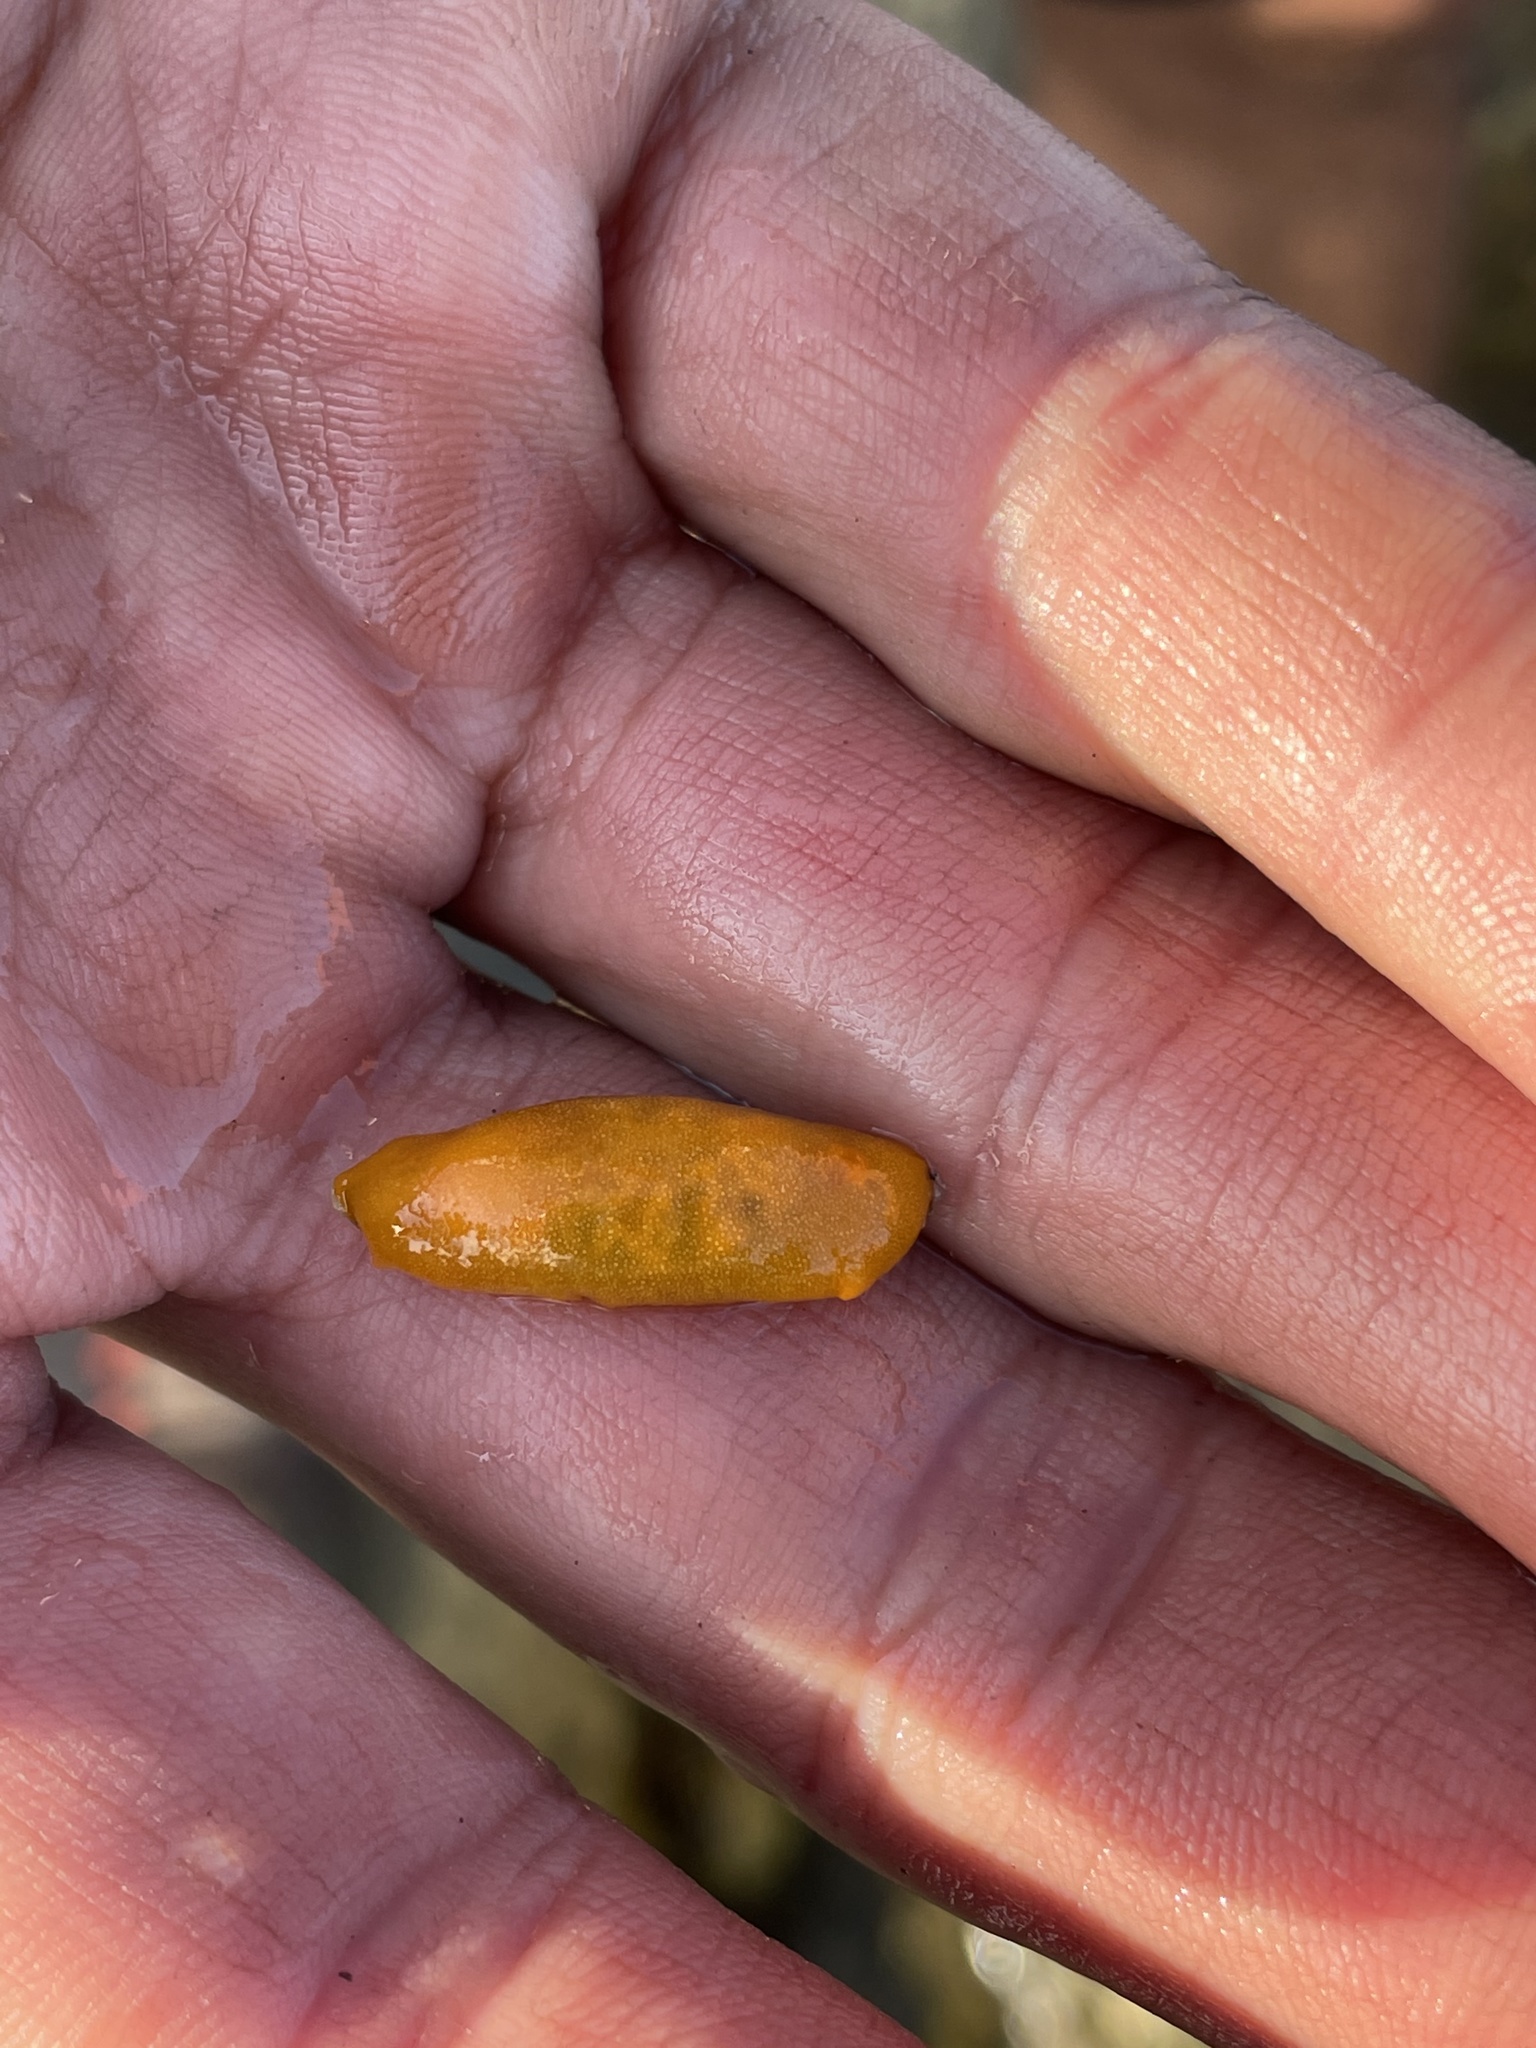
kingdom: Animalia
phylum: Mollusca
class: Gastropoda
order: Nudibranchia
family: Dendrodorididae
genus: Doriopsilla
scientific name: Doriopsilla bertschi
